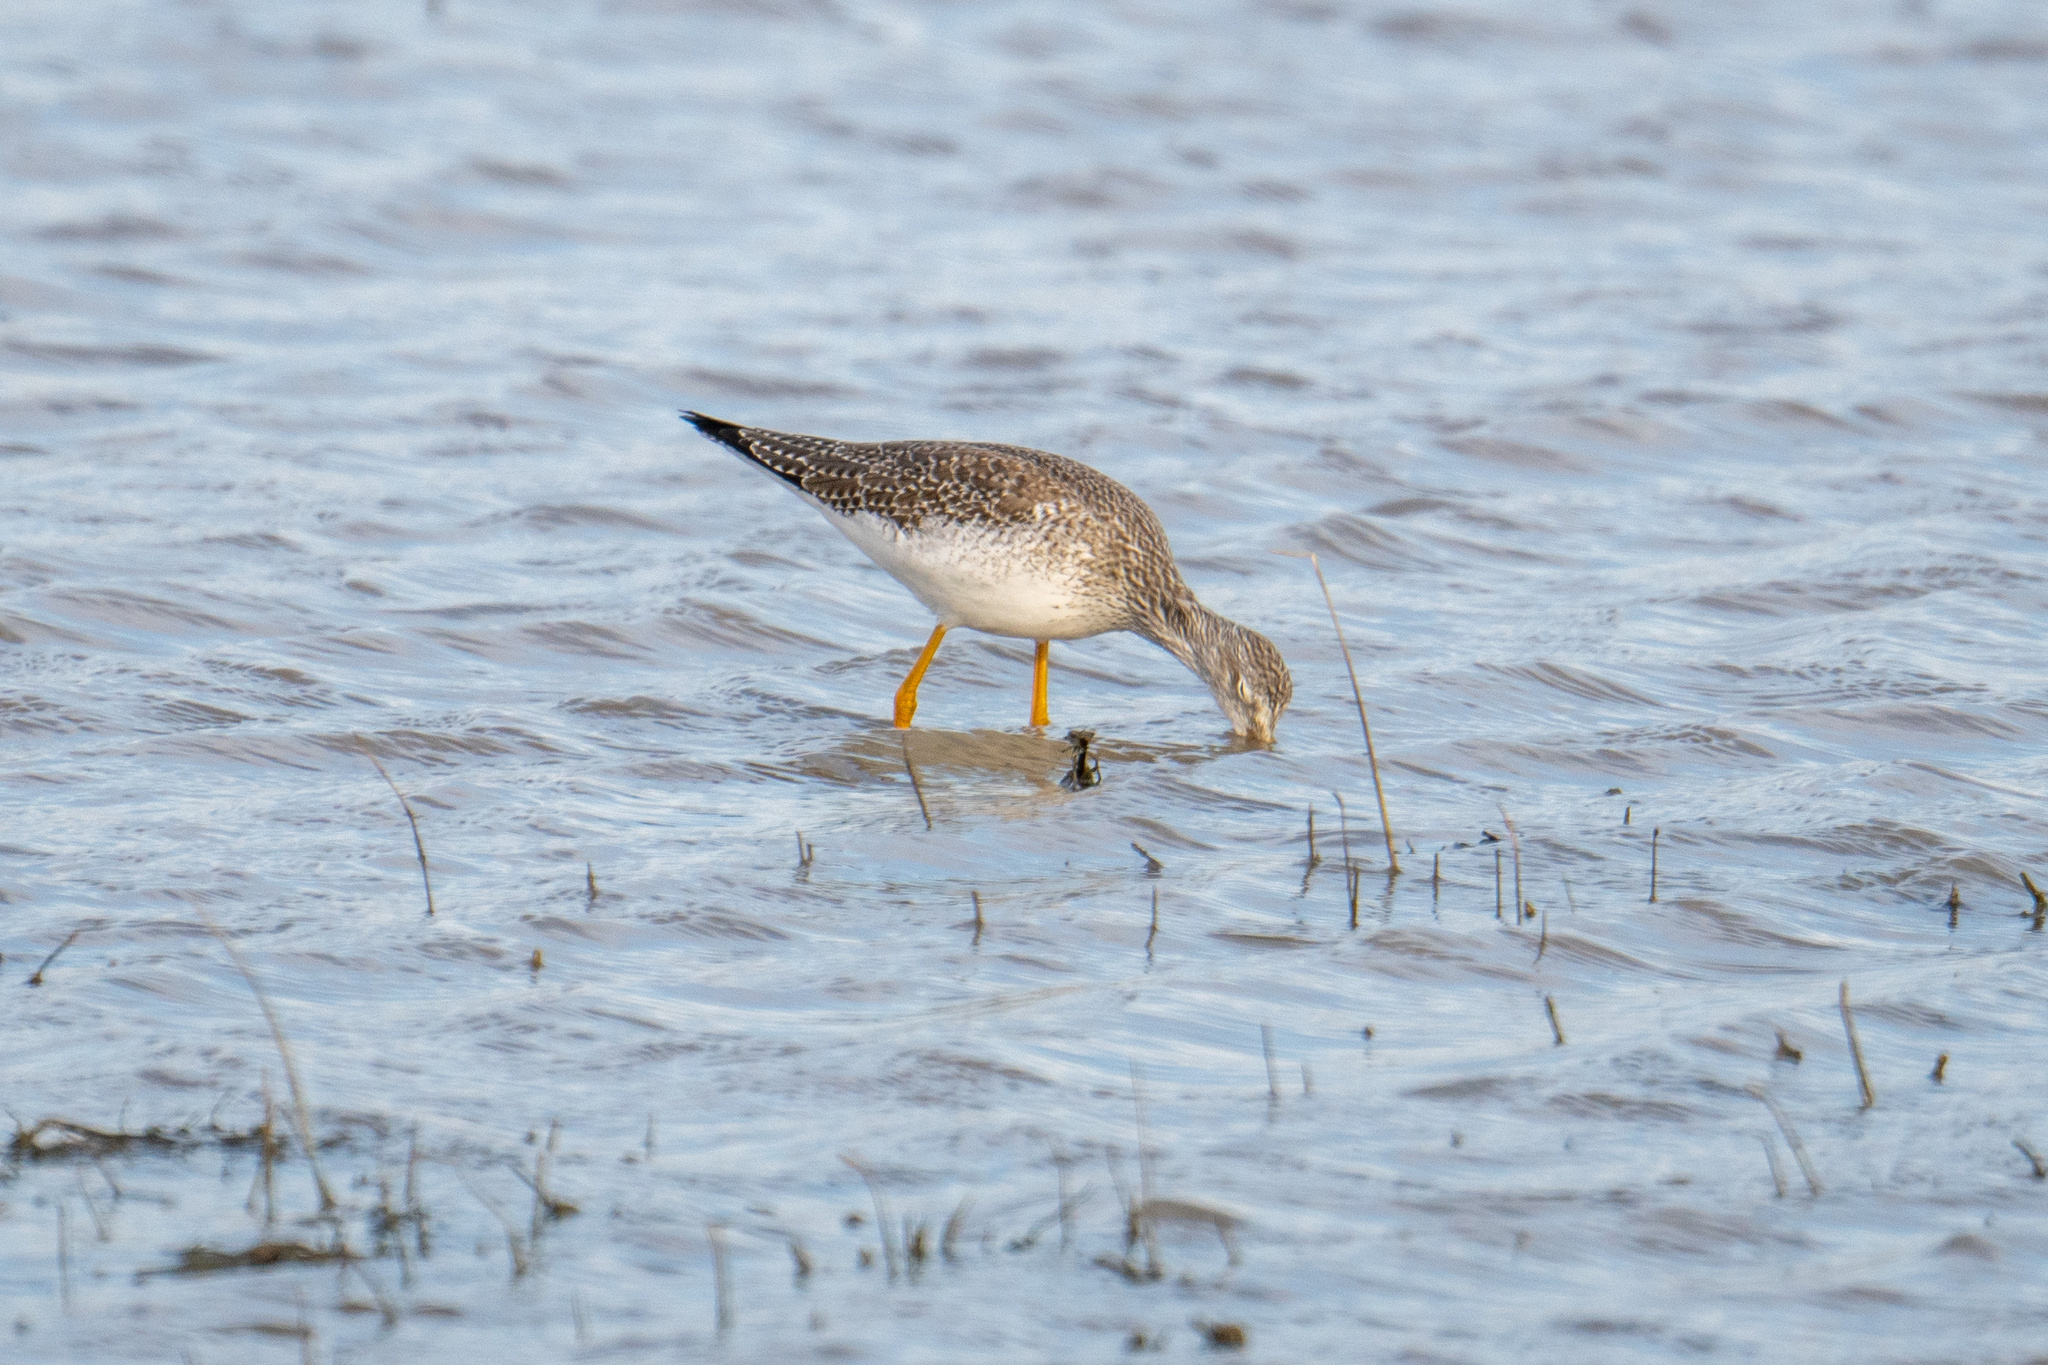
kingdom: Animalia
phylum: Chordata
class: Aves
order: Charadriiformes
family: Scolopacidae
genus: Tringa
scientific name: Tringa melanoleuca
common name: Greater yellowlegs
